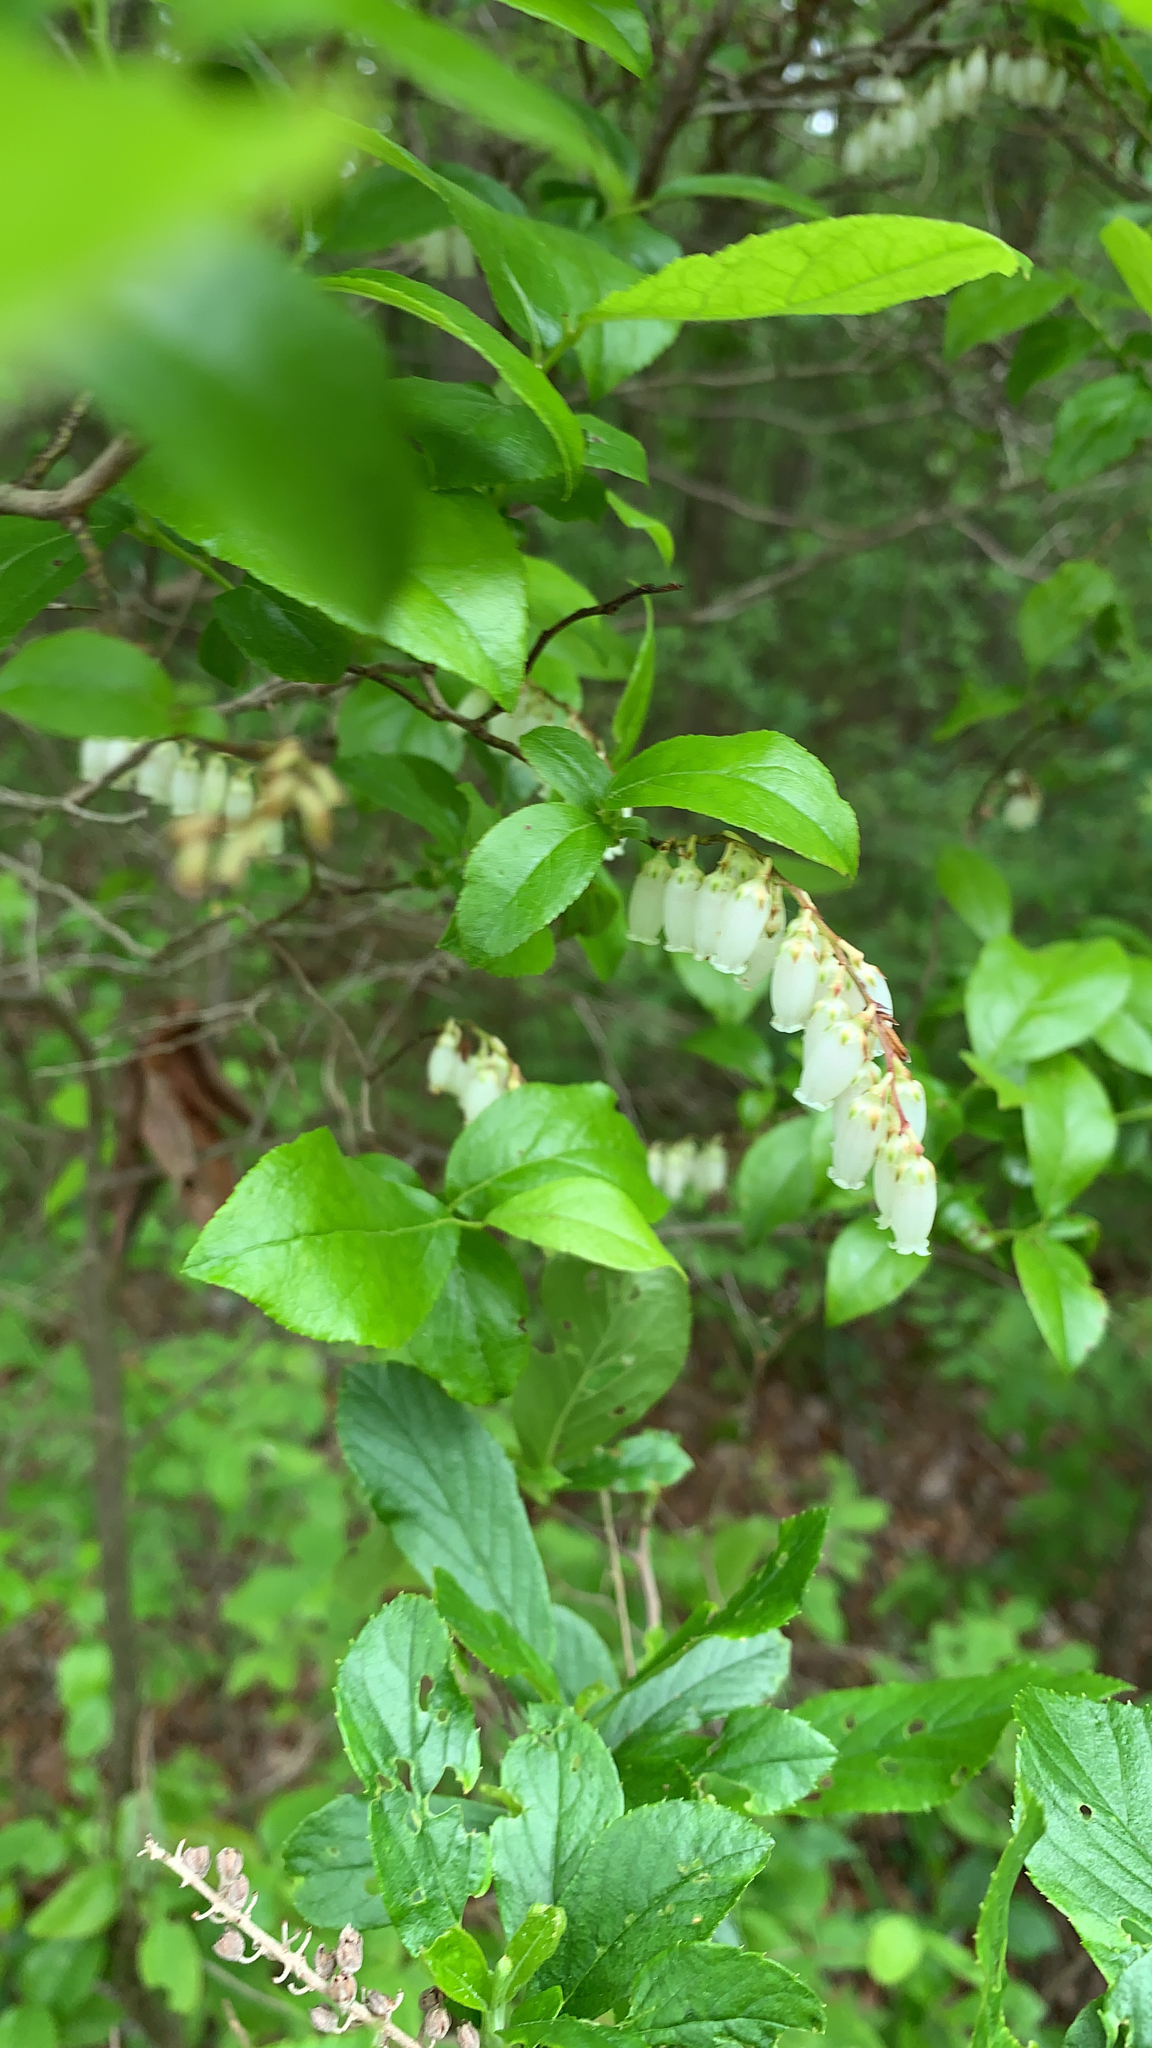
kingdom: Plantae
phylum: Tracheophyta
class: Magnoliopsida
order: Ericales
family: Ericaceae
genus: Eubotrys
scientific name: Eubotrys racemosa
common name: Fetterbush
